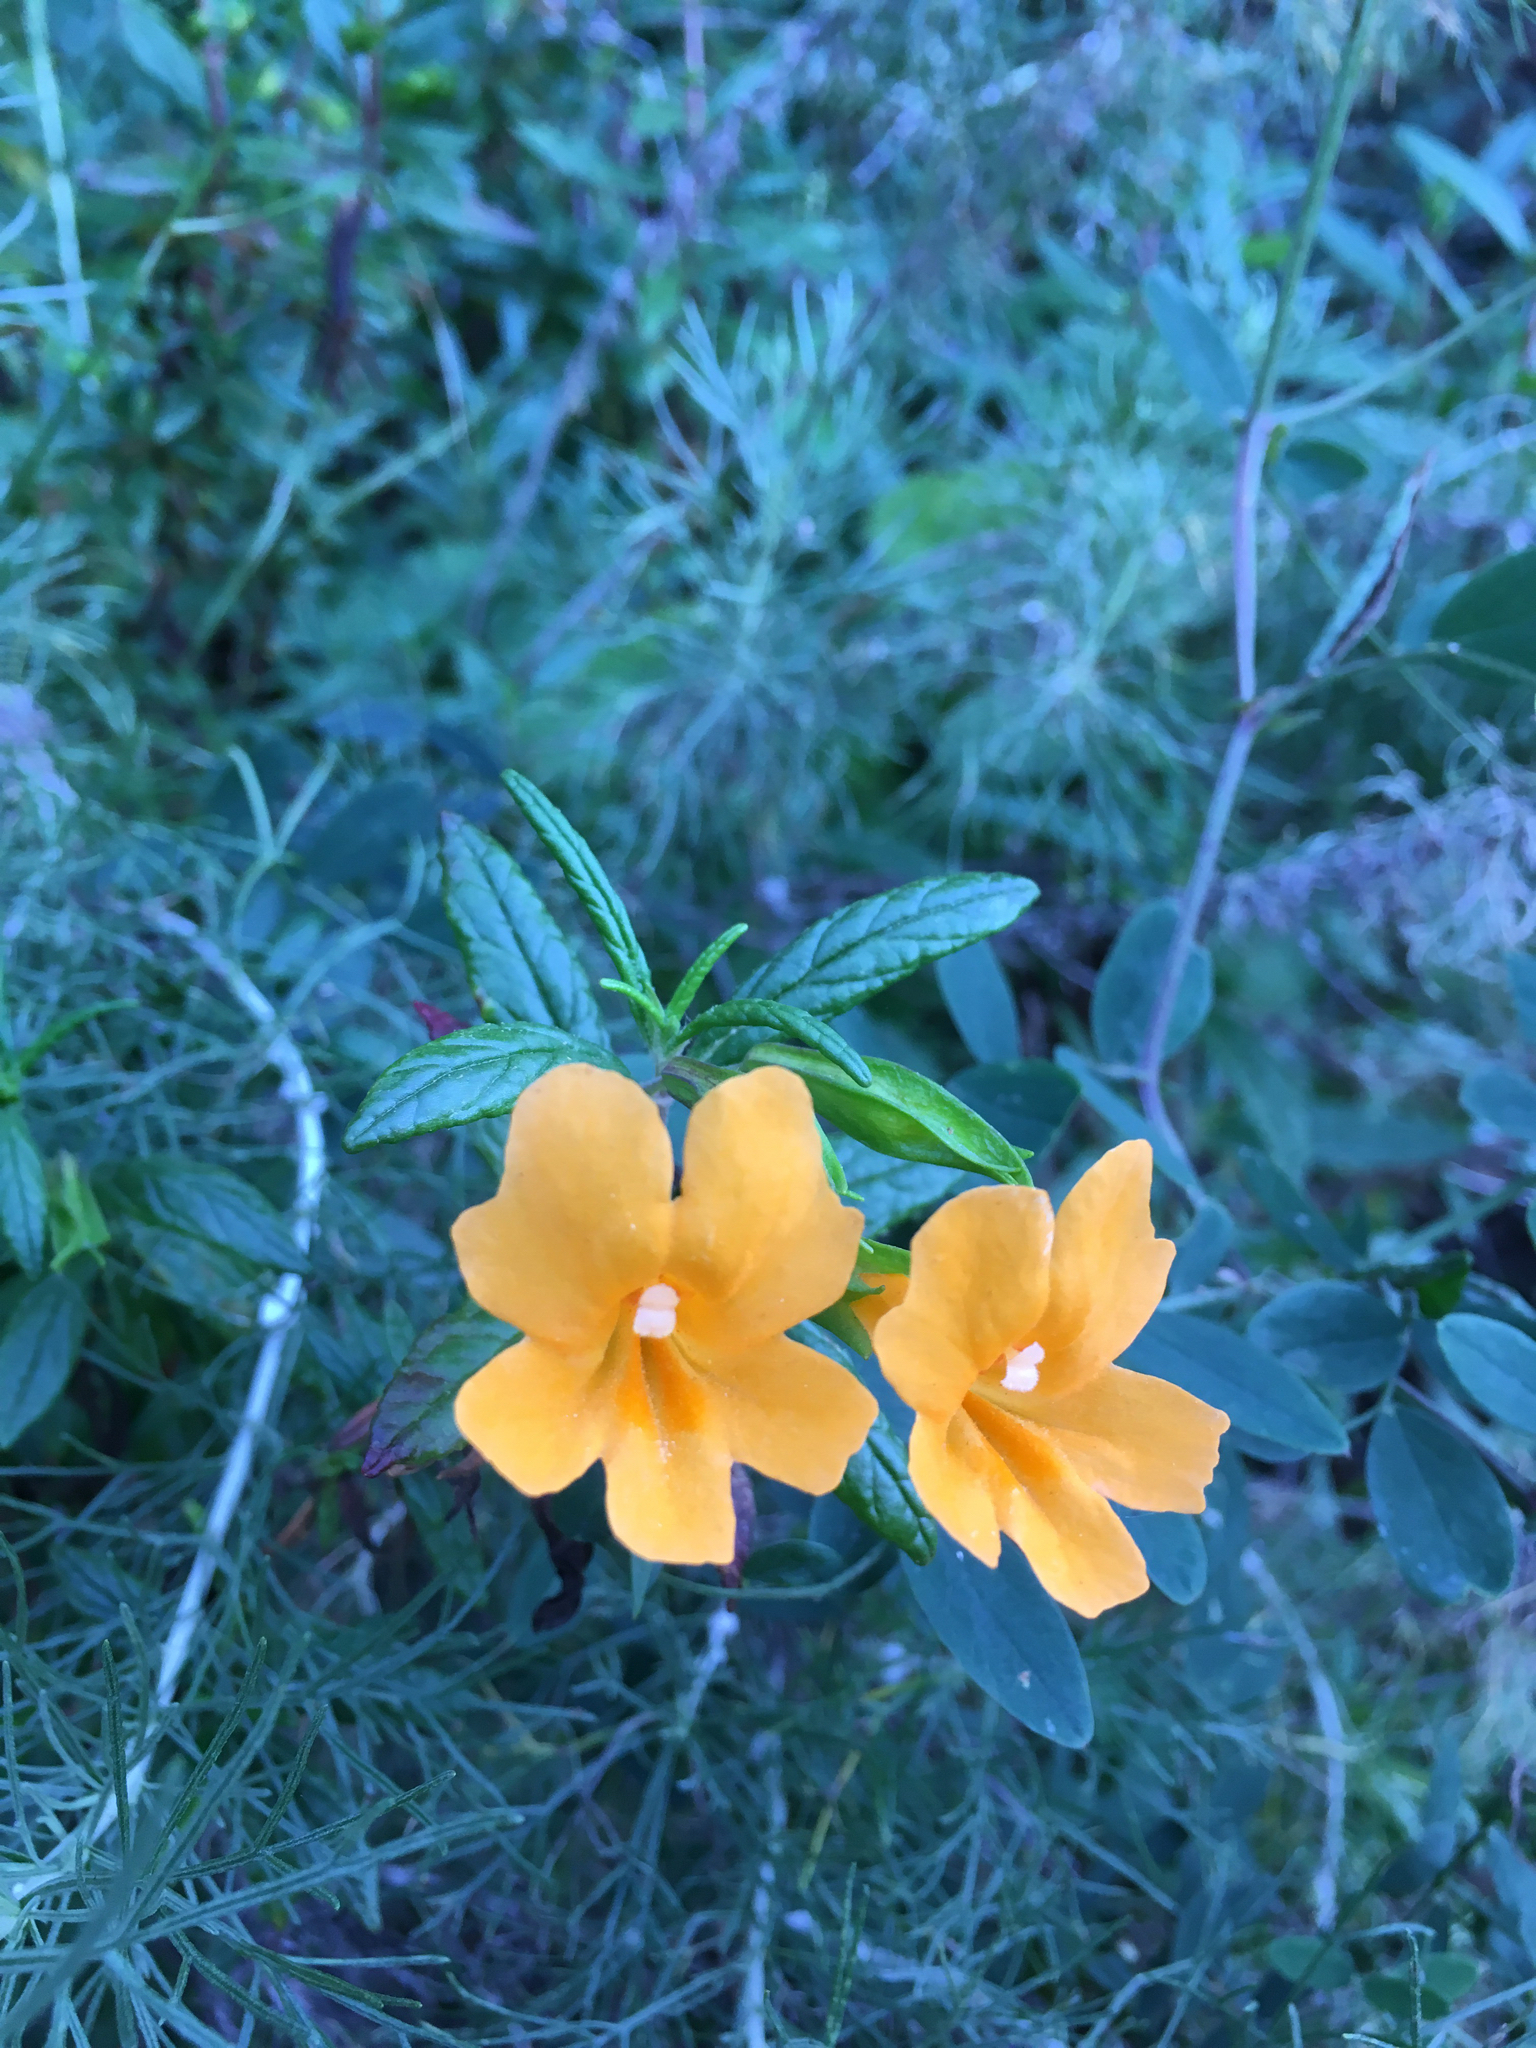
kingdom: Plantae
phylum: Tracheophyta
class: Magnoliopsida
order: Lamiales
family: Phrymaceae
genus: Diplacus
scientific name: Diplacus aurantiacus
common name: Bush monkey-flower
